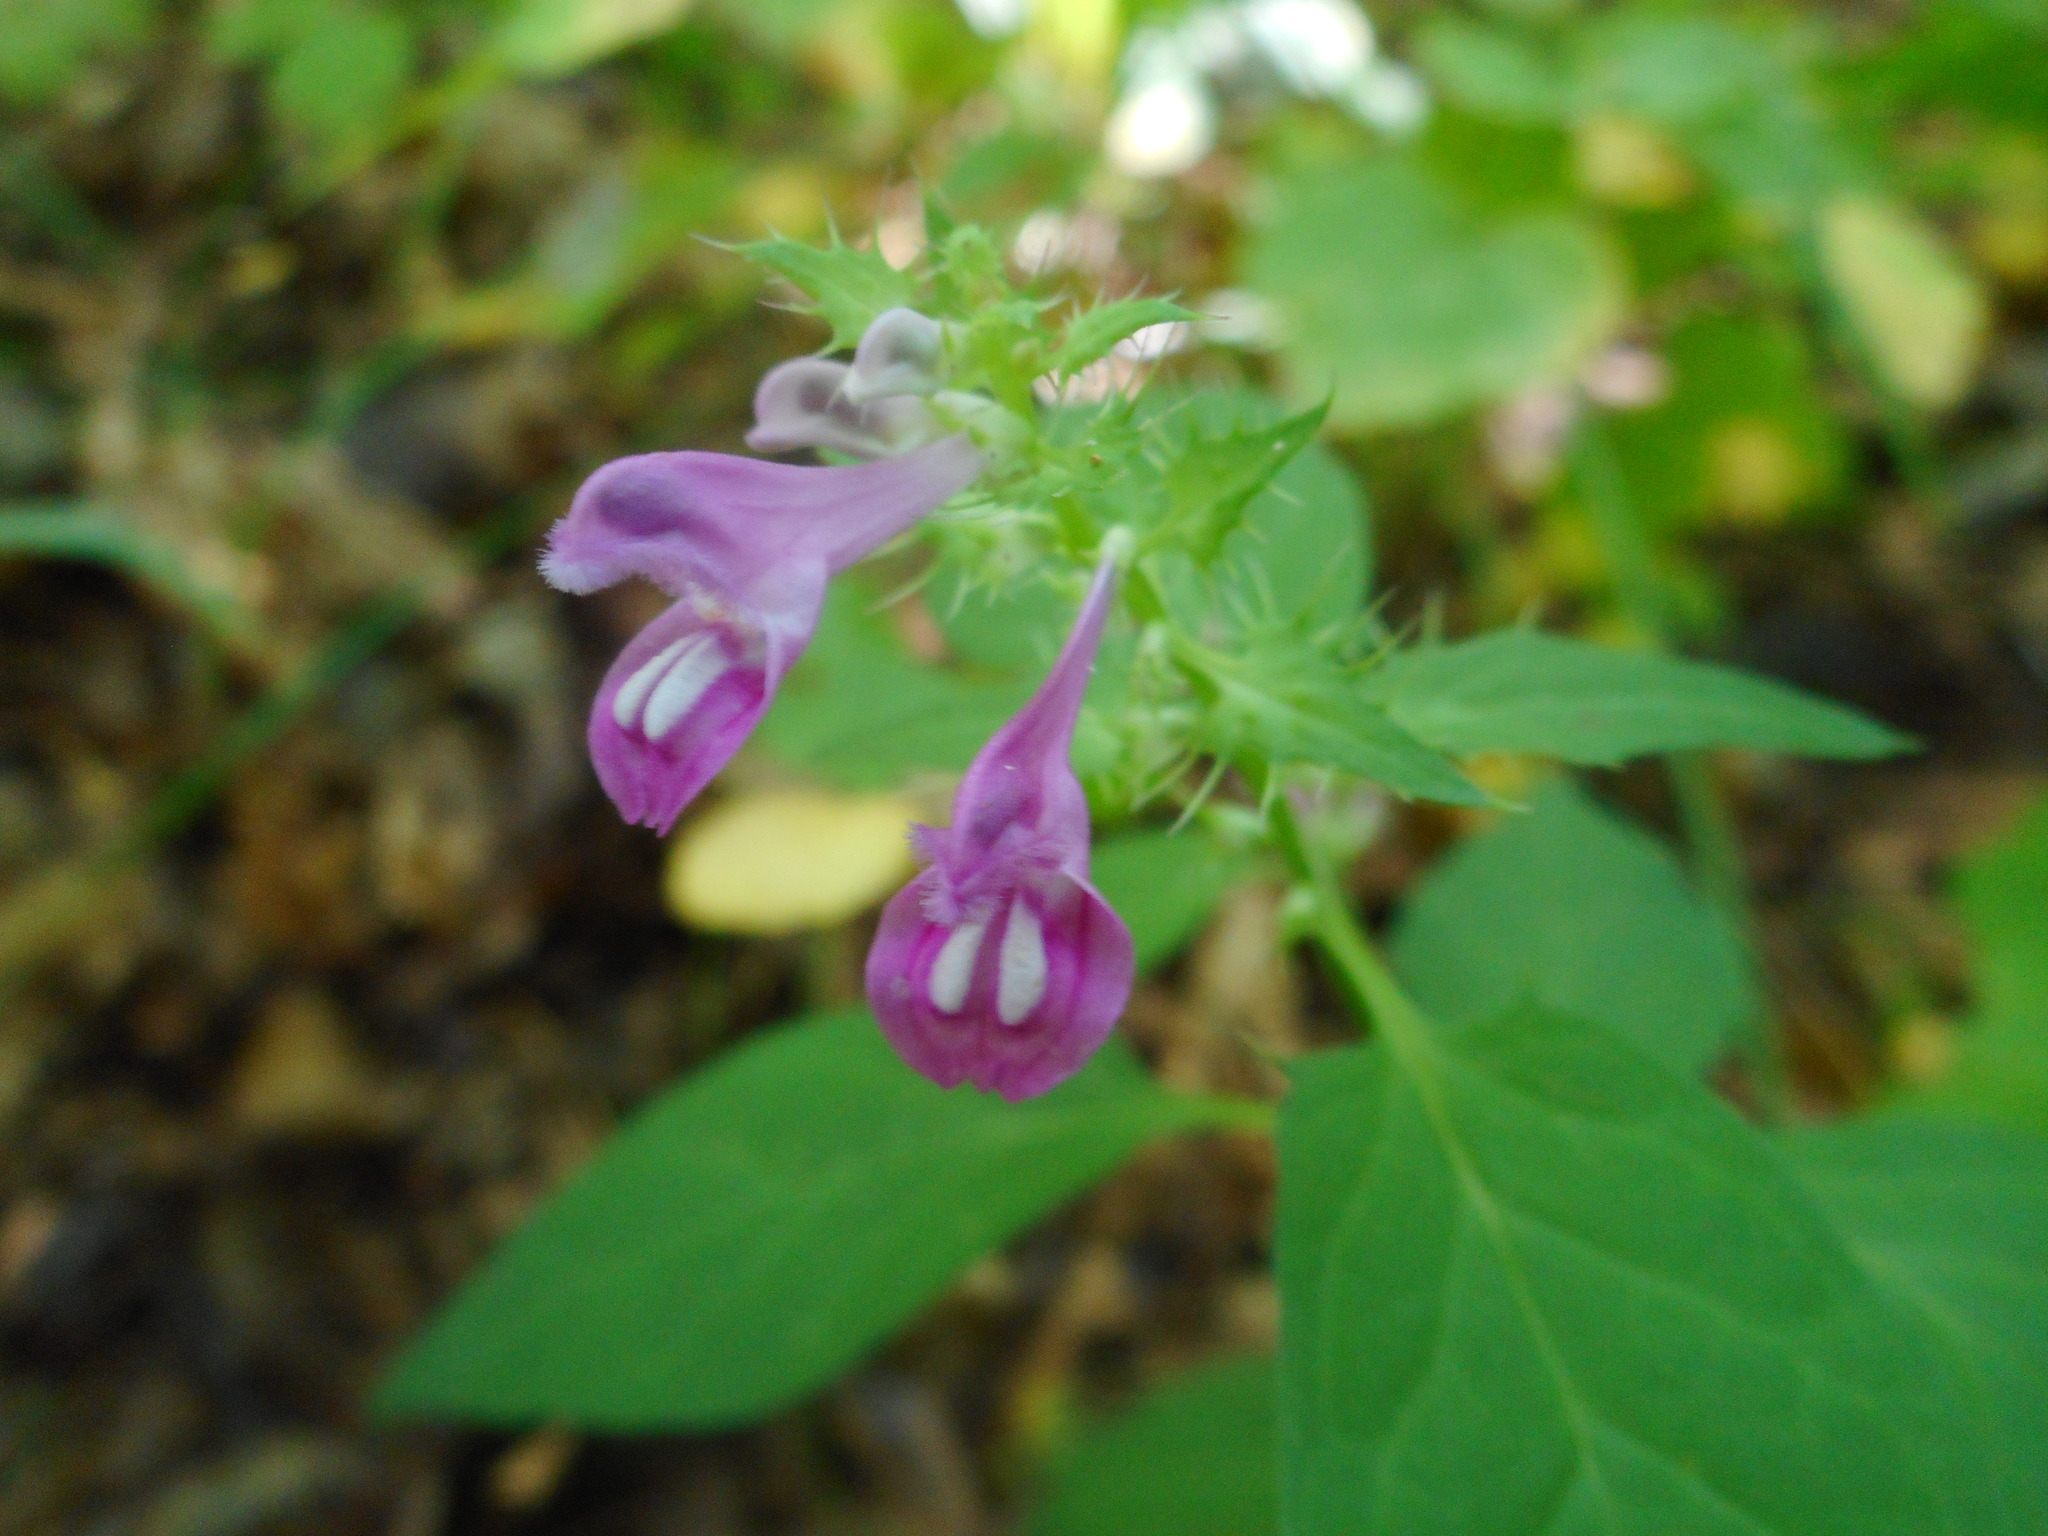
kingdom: Plantae
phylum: Tracheophyta
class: Magnoliopsida
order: Lamiales
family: Orobanchaceae
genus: Melampyrum
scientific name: Melampyrum roseum
